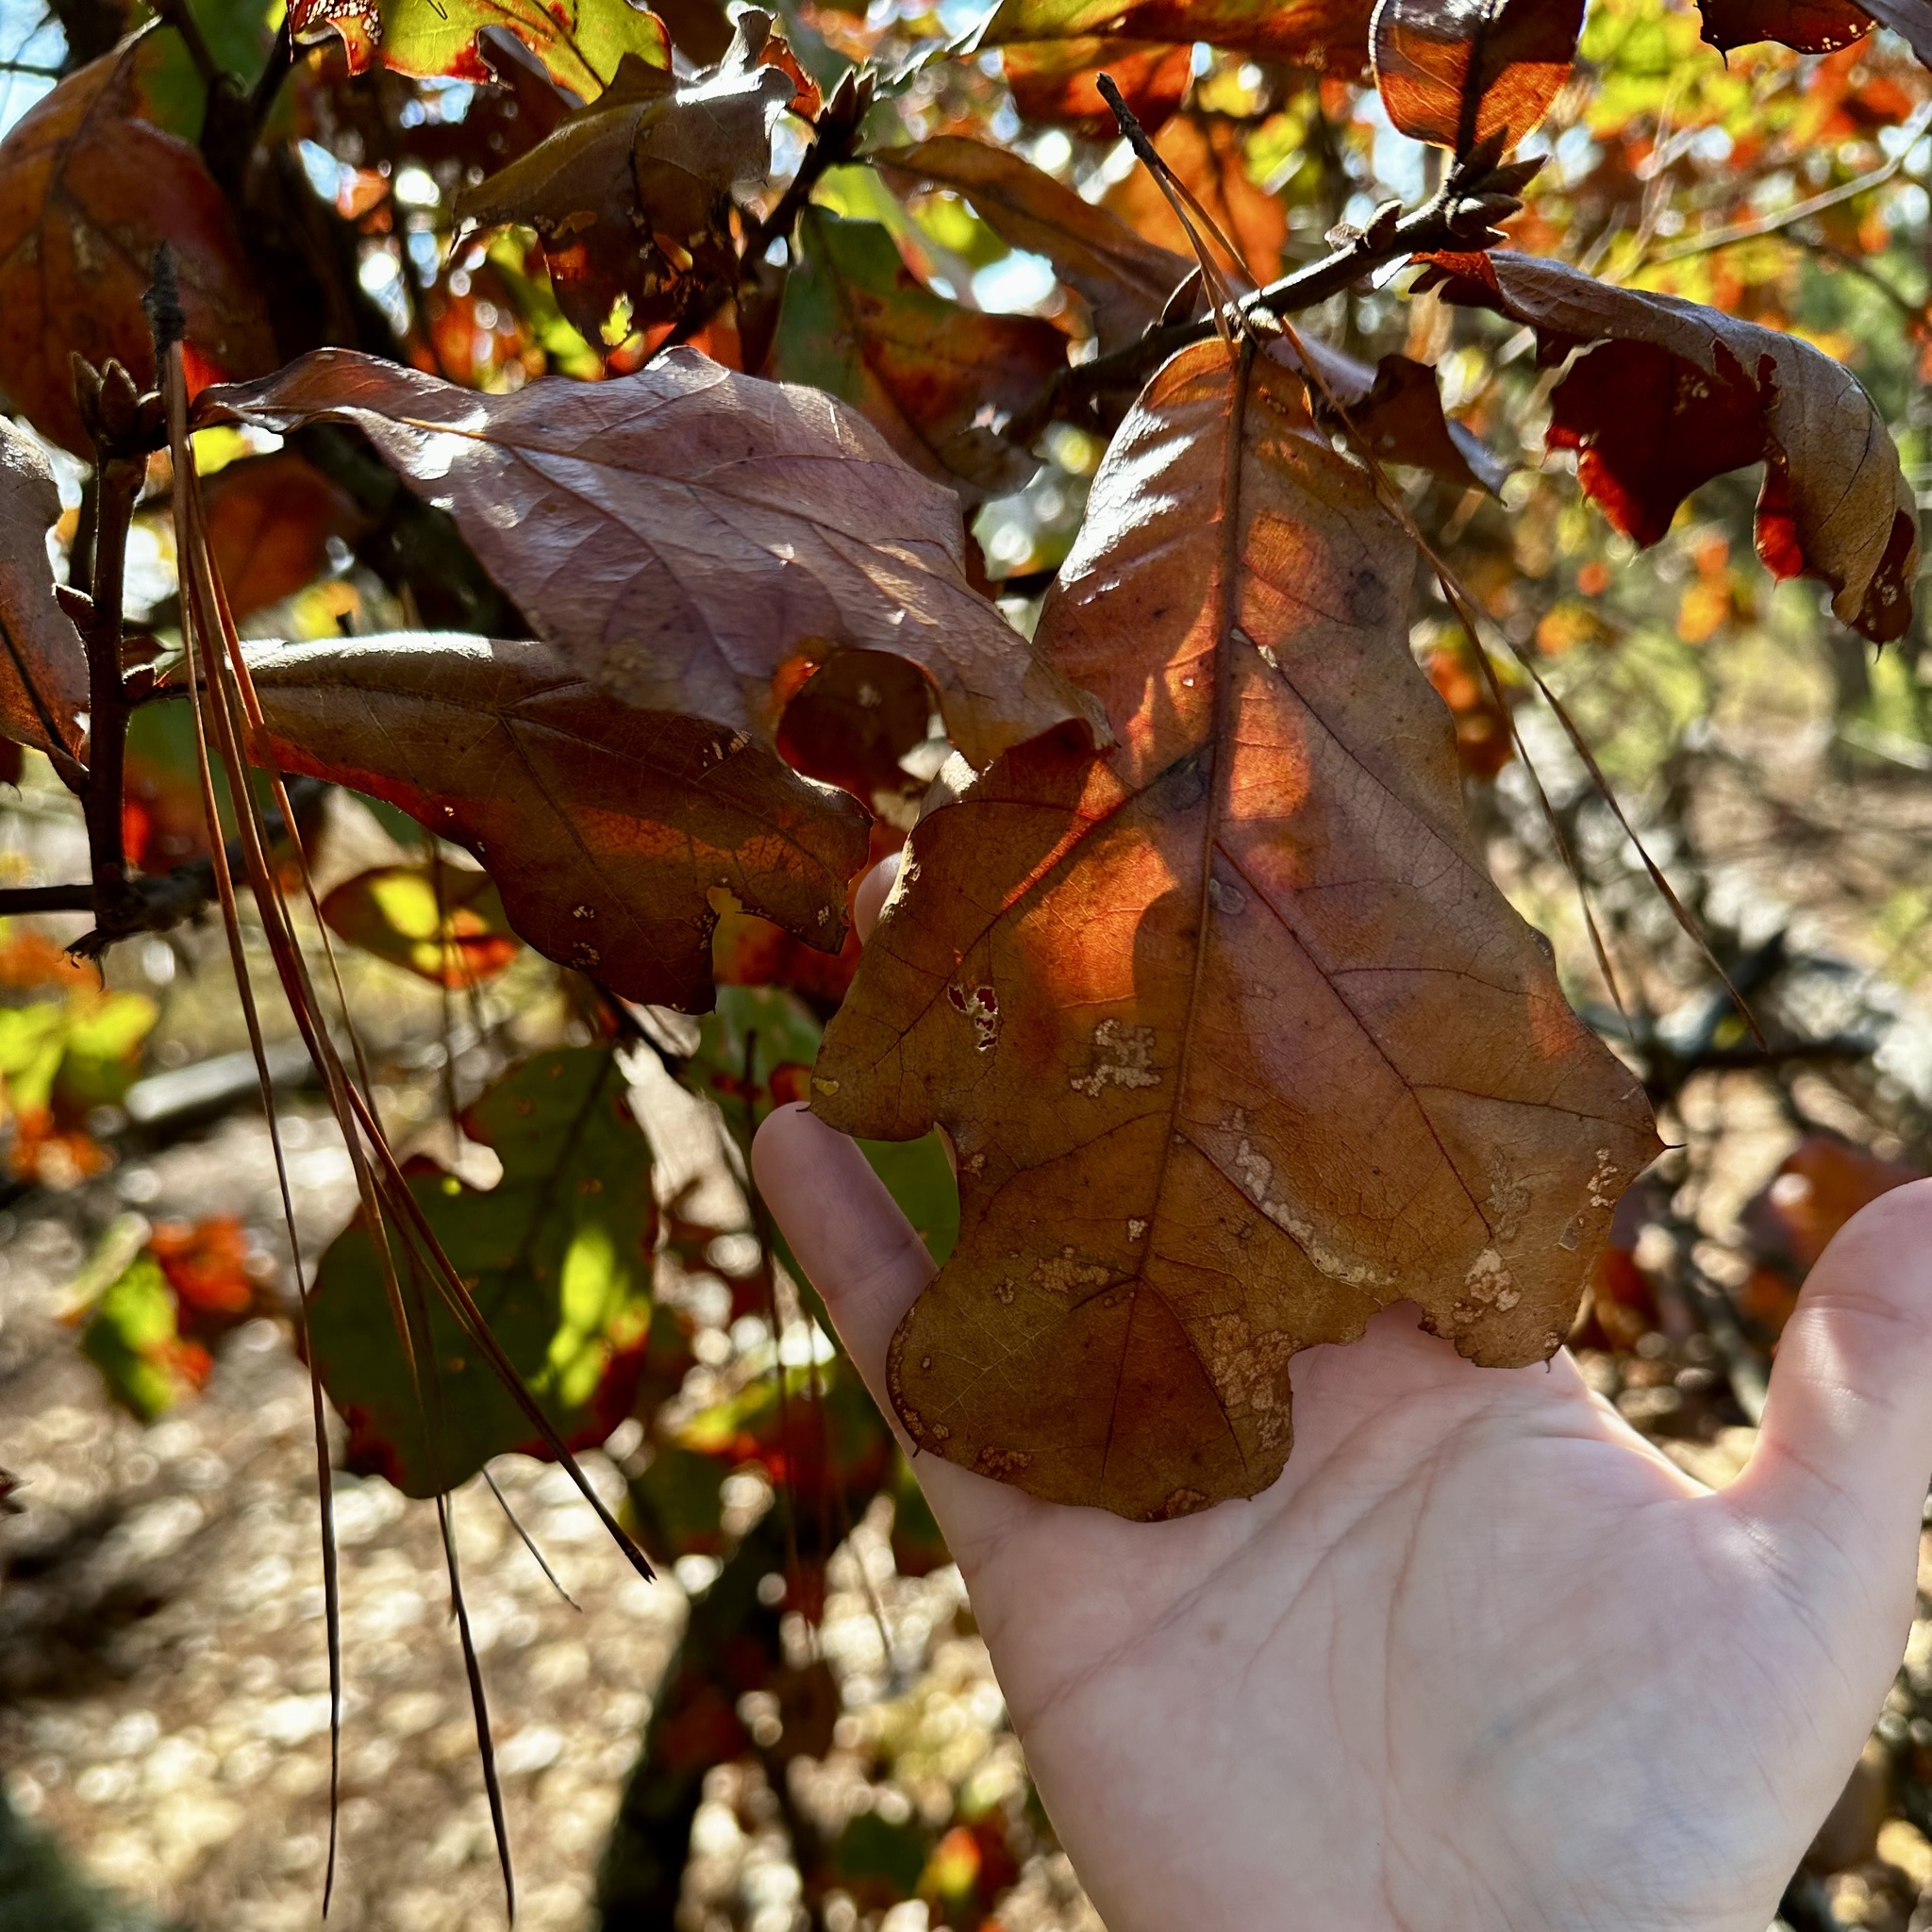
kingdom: Plantae
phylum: Tracheophyta
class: Magnoliopsida
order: Fagales
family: Fagaceae
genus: Quercus
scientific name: Quercus marilandica
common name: Blackjack oak
